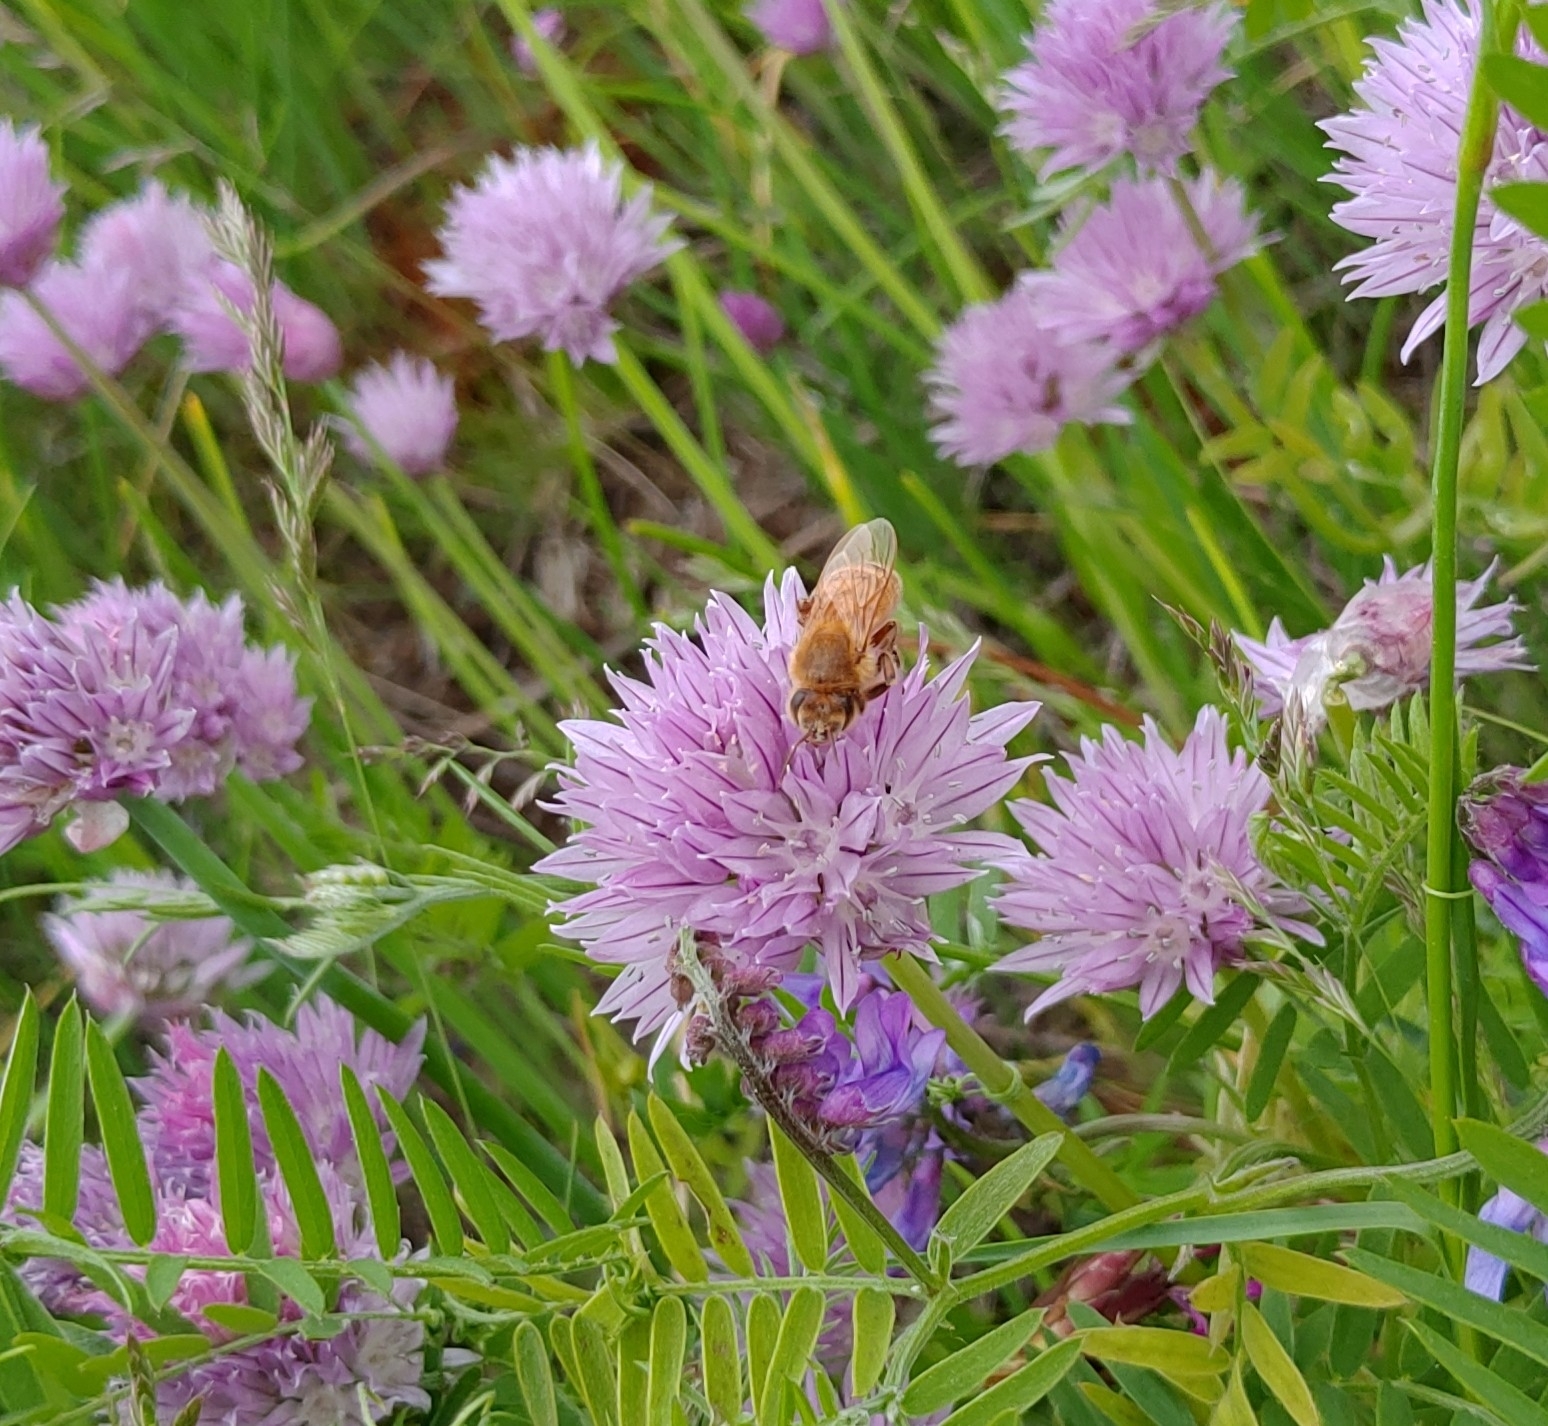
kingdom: Animalia
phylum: Arthropoda
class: Insecta
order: Hymenoptera
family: Apidae
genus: Apis
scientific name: Apis mellifera
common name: Honey bee
